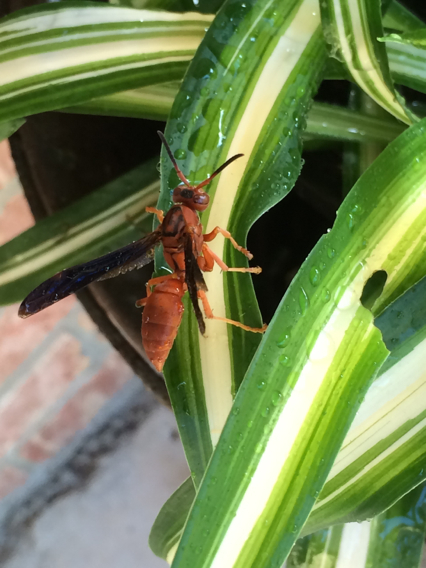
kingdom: Animalia
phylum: Arthropoda
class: Insecta
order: Hymenoptera
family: Eumenidae
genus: Polistes
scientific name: Polistes carolina
